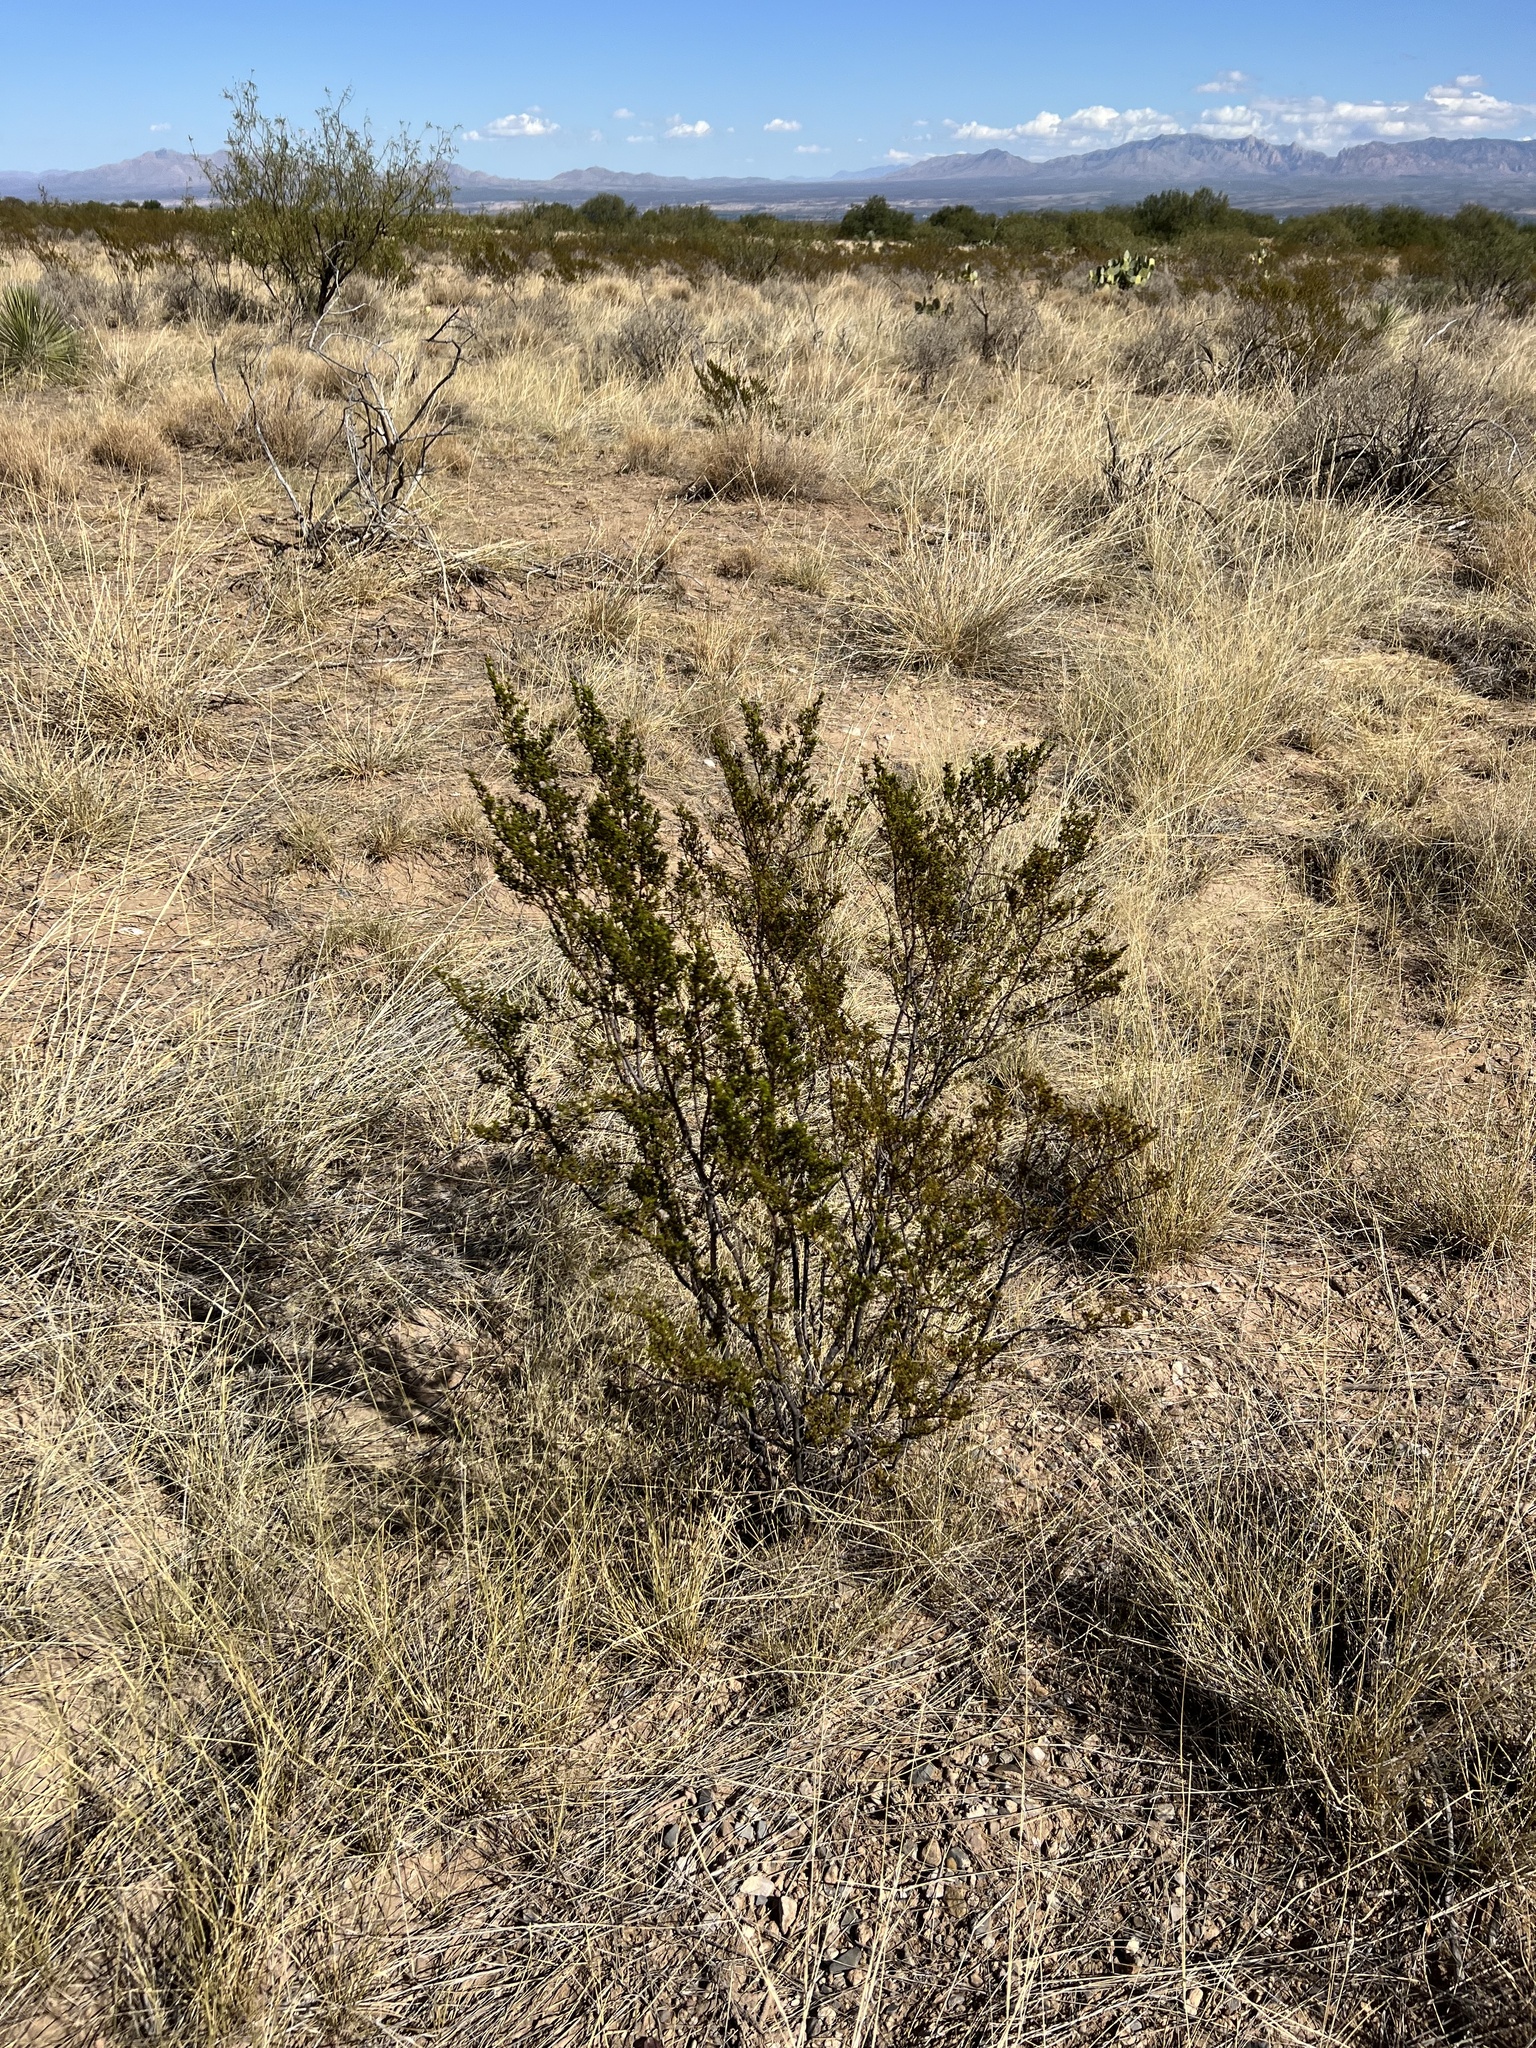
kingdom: Plantae
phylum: Tracheophyta
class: Magnoliopsida
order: Zygophyllales
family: Zygophyllaceae
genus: Larrea
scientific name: Larrea tridentata
